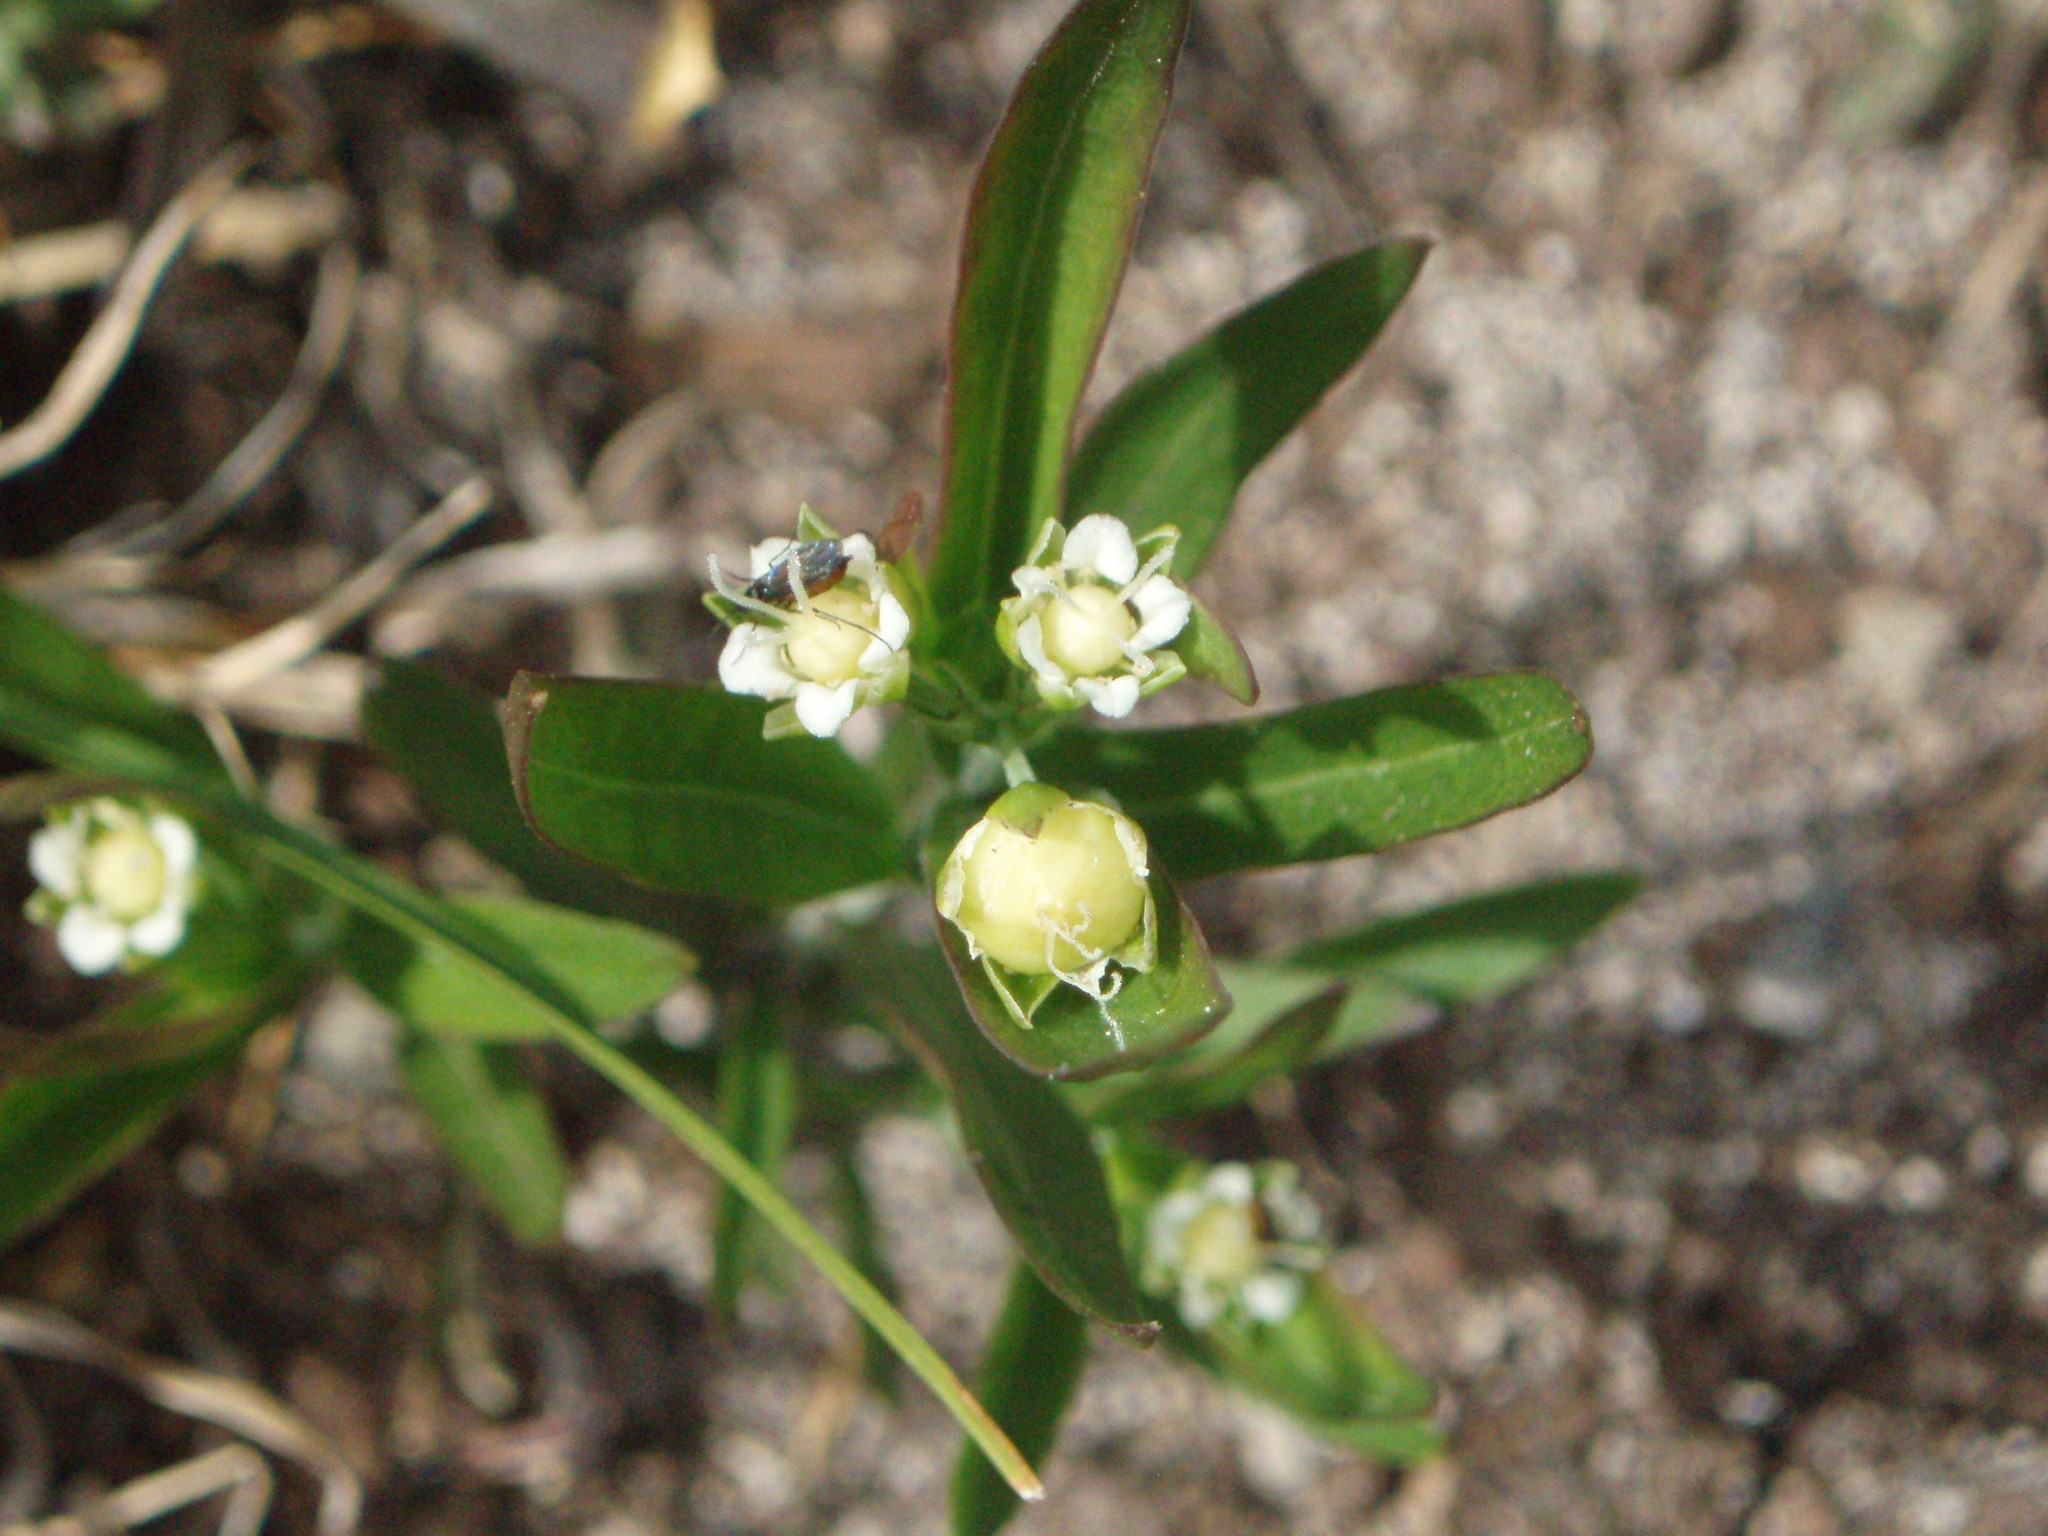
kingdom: Plantae
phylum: Tracheophyta
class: Magnoliopsida
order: Caryophyllales
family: Caryophyllaceae
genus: Moehringia
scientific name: Moehringia macrophylla
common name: Big-leaf sandwort
